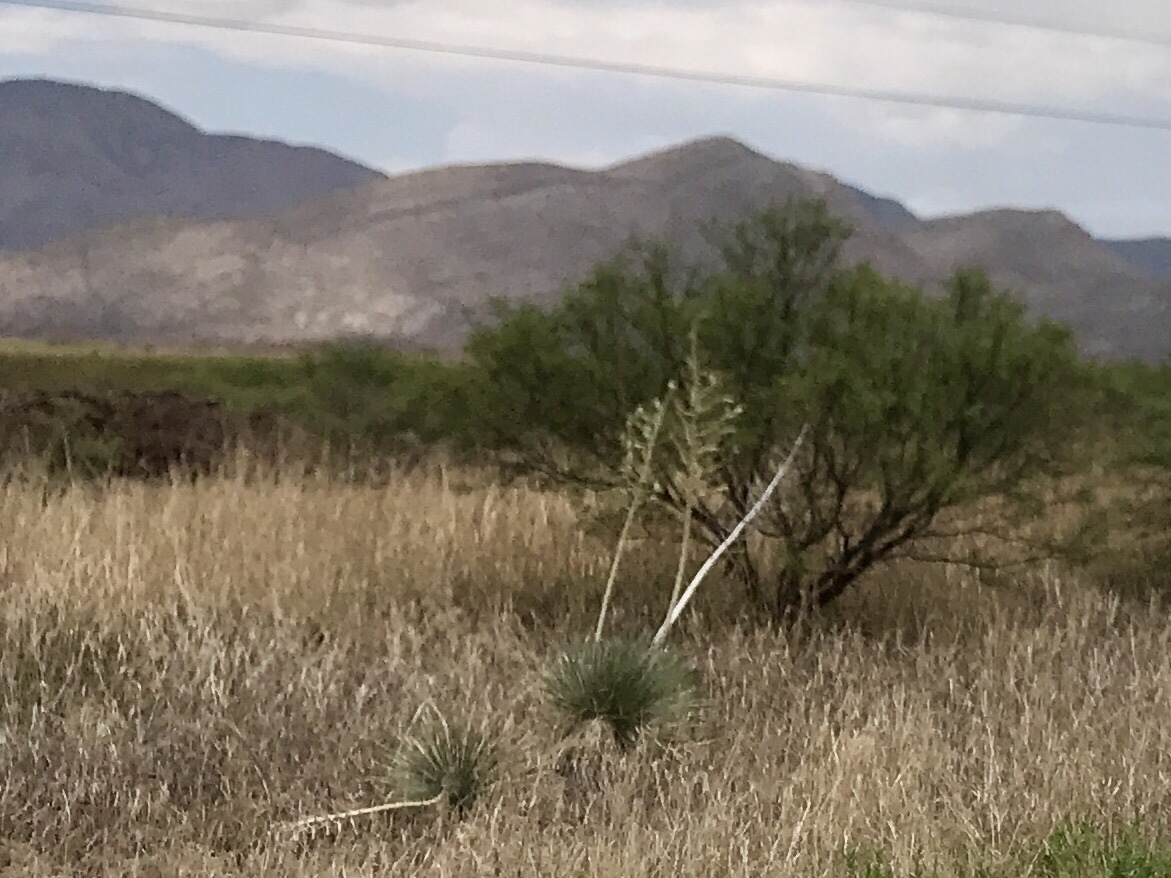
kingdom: Plantae
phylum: Tracheophyta
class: Liliopsida
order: Asparagales
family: Asparagaceae
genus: Yucca
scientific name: Yucca elata
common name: Palmella
